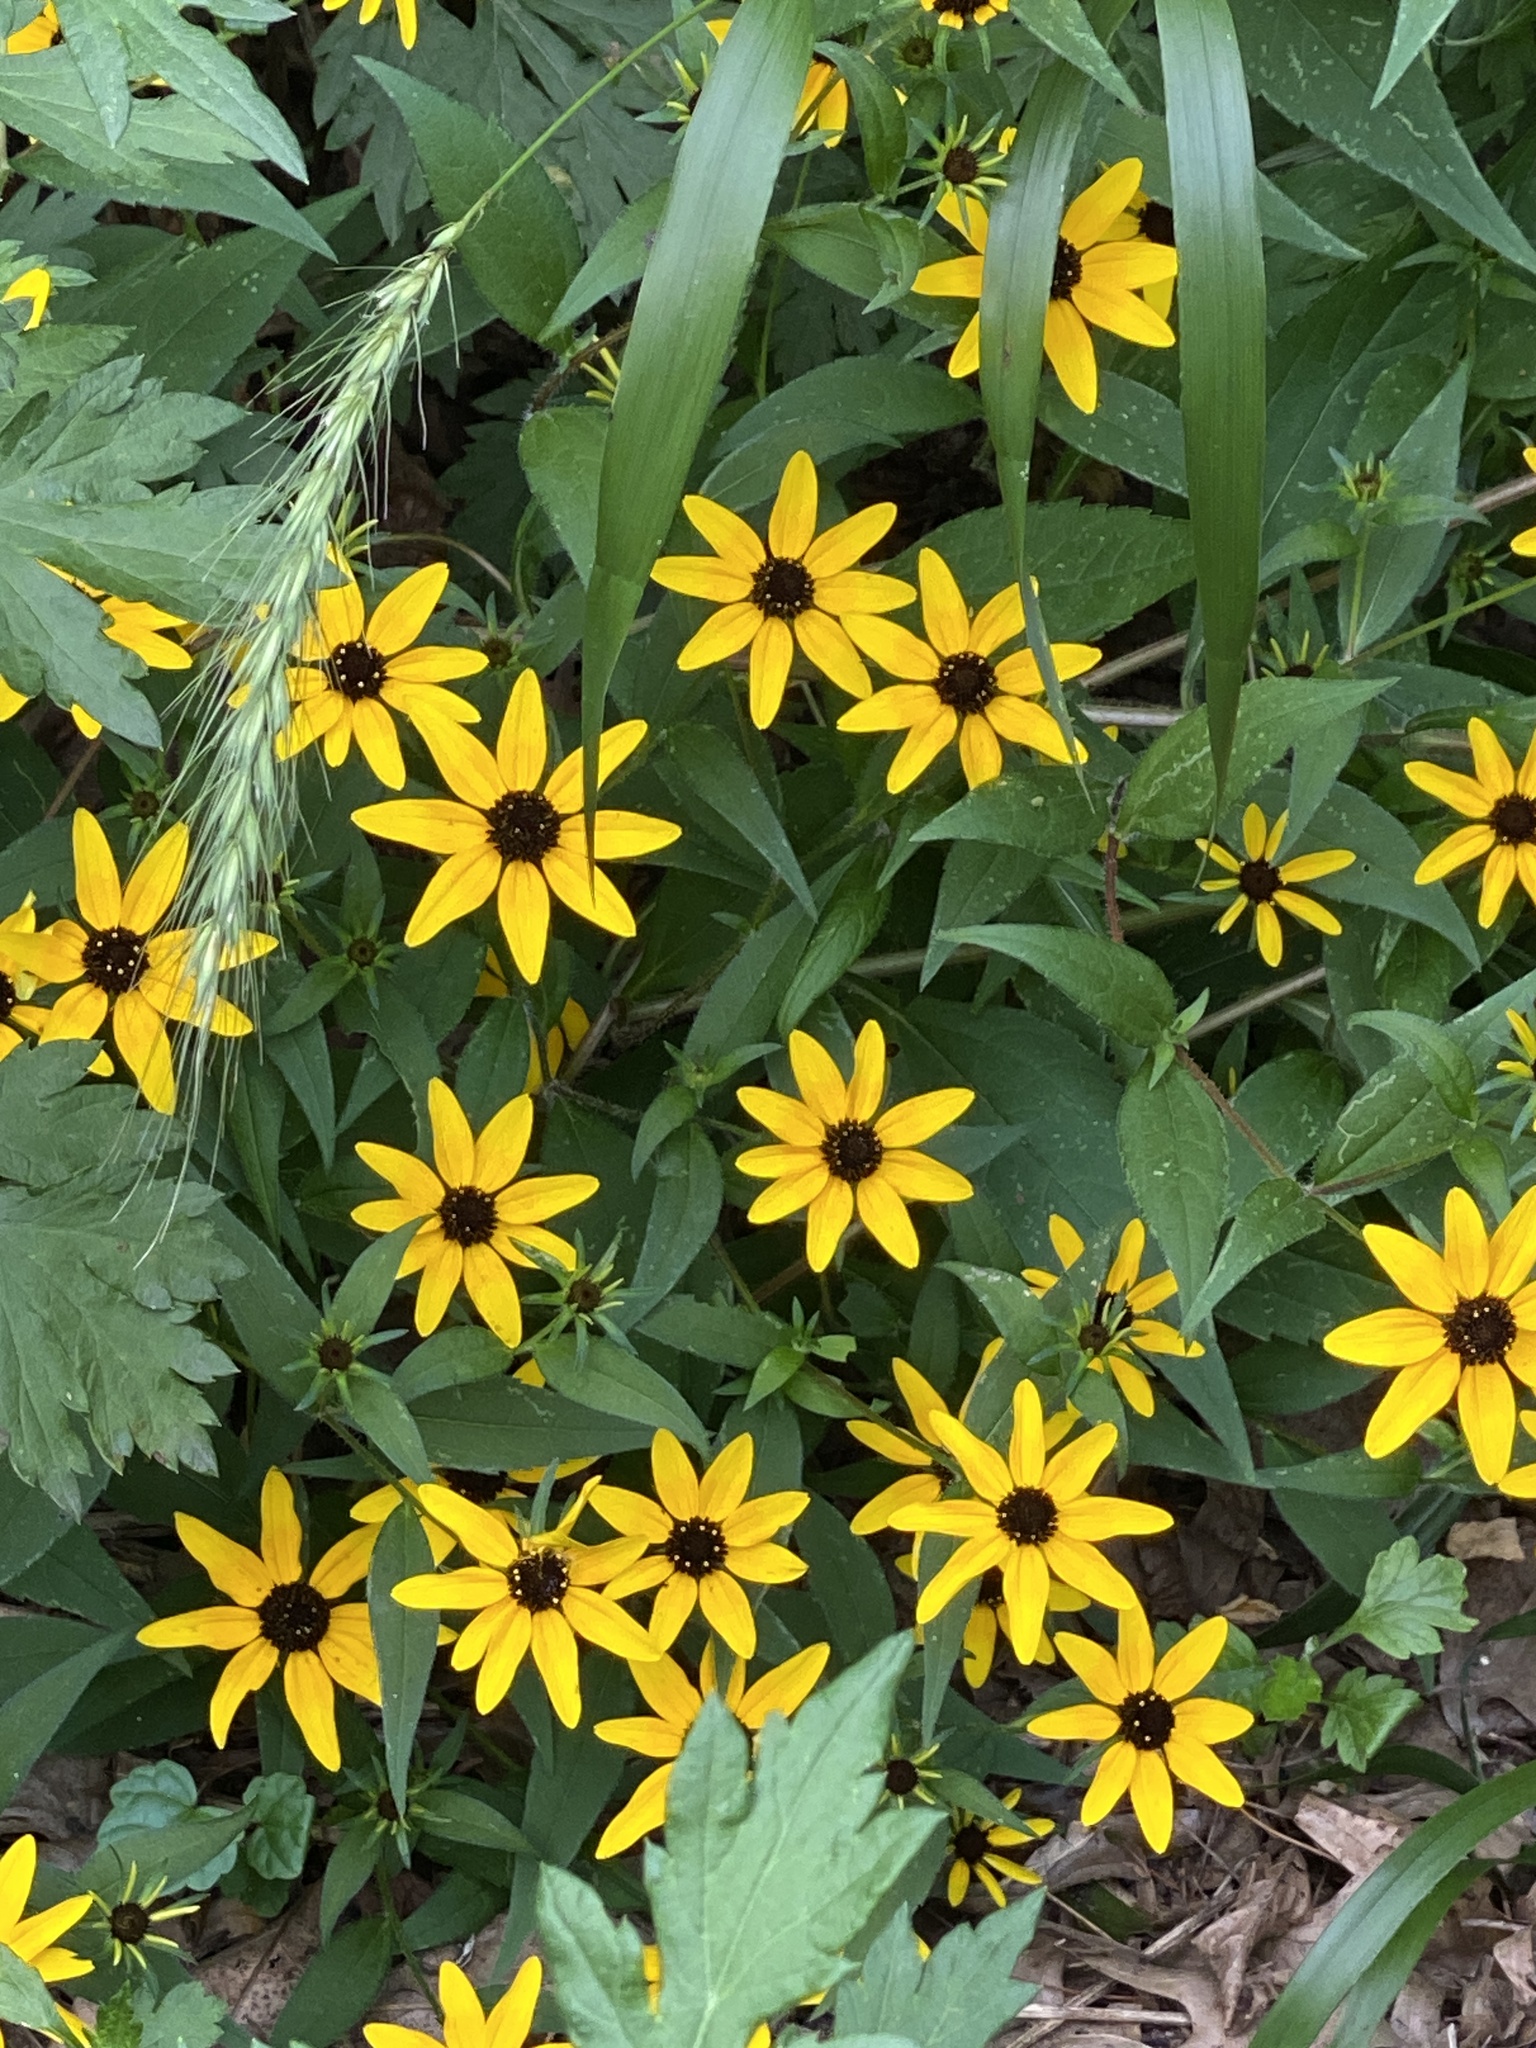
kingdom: Plantae
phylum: Tracheophyta
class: Magnoliopsida
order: Asterales
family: Asteraceae
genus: Rudbeckia
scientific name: Rudbeckia triloba
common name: Thin-leaved coneflower
